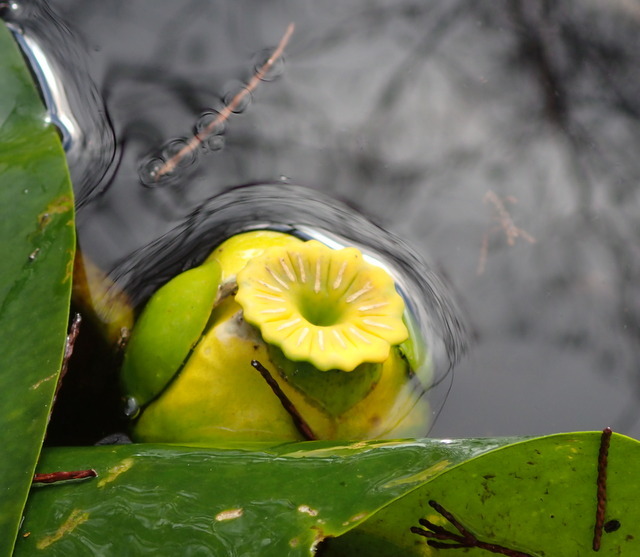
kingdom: Plantae
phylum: Tracheophyta
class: Magnoliopsida
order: Nymphaeales
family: Nymphaeaceae
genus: Nuphar
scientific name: Nuphar advena
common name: Spatter-dock
